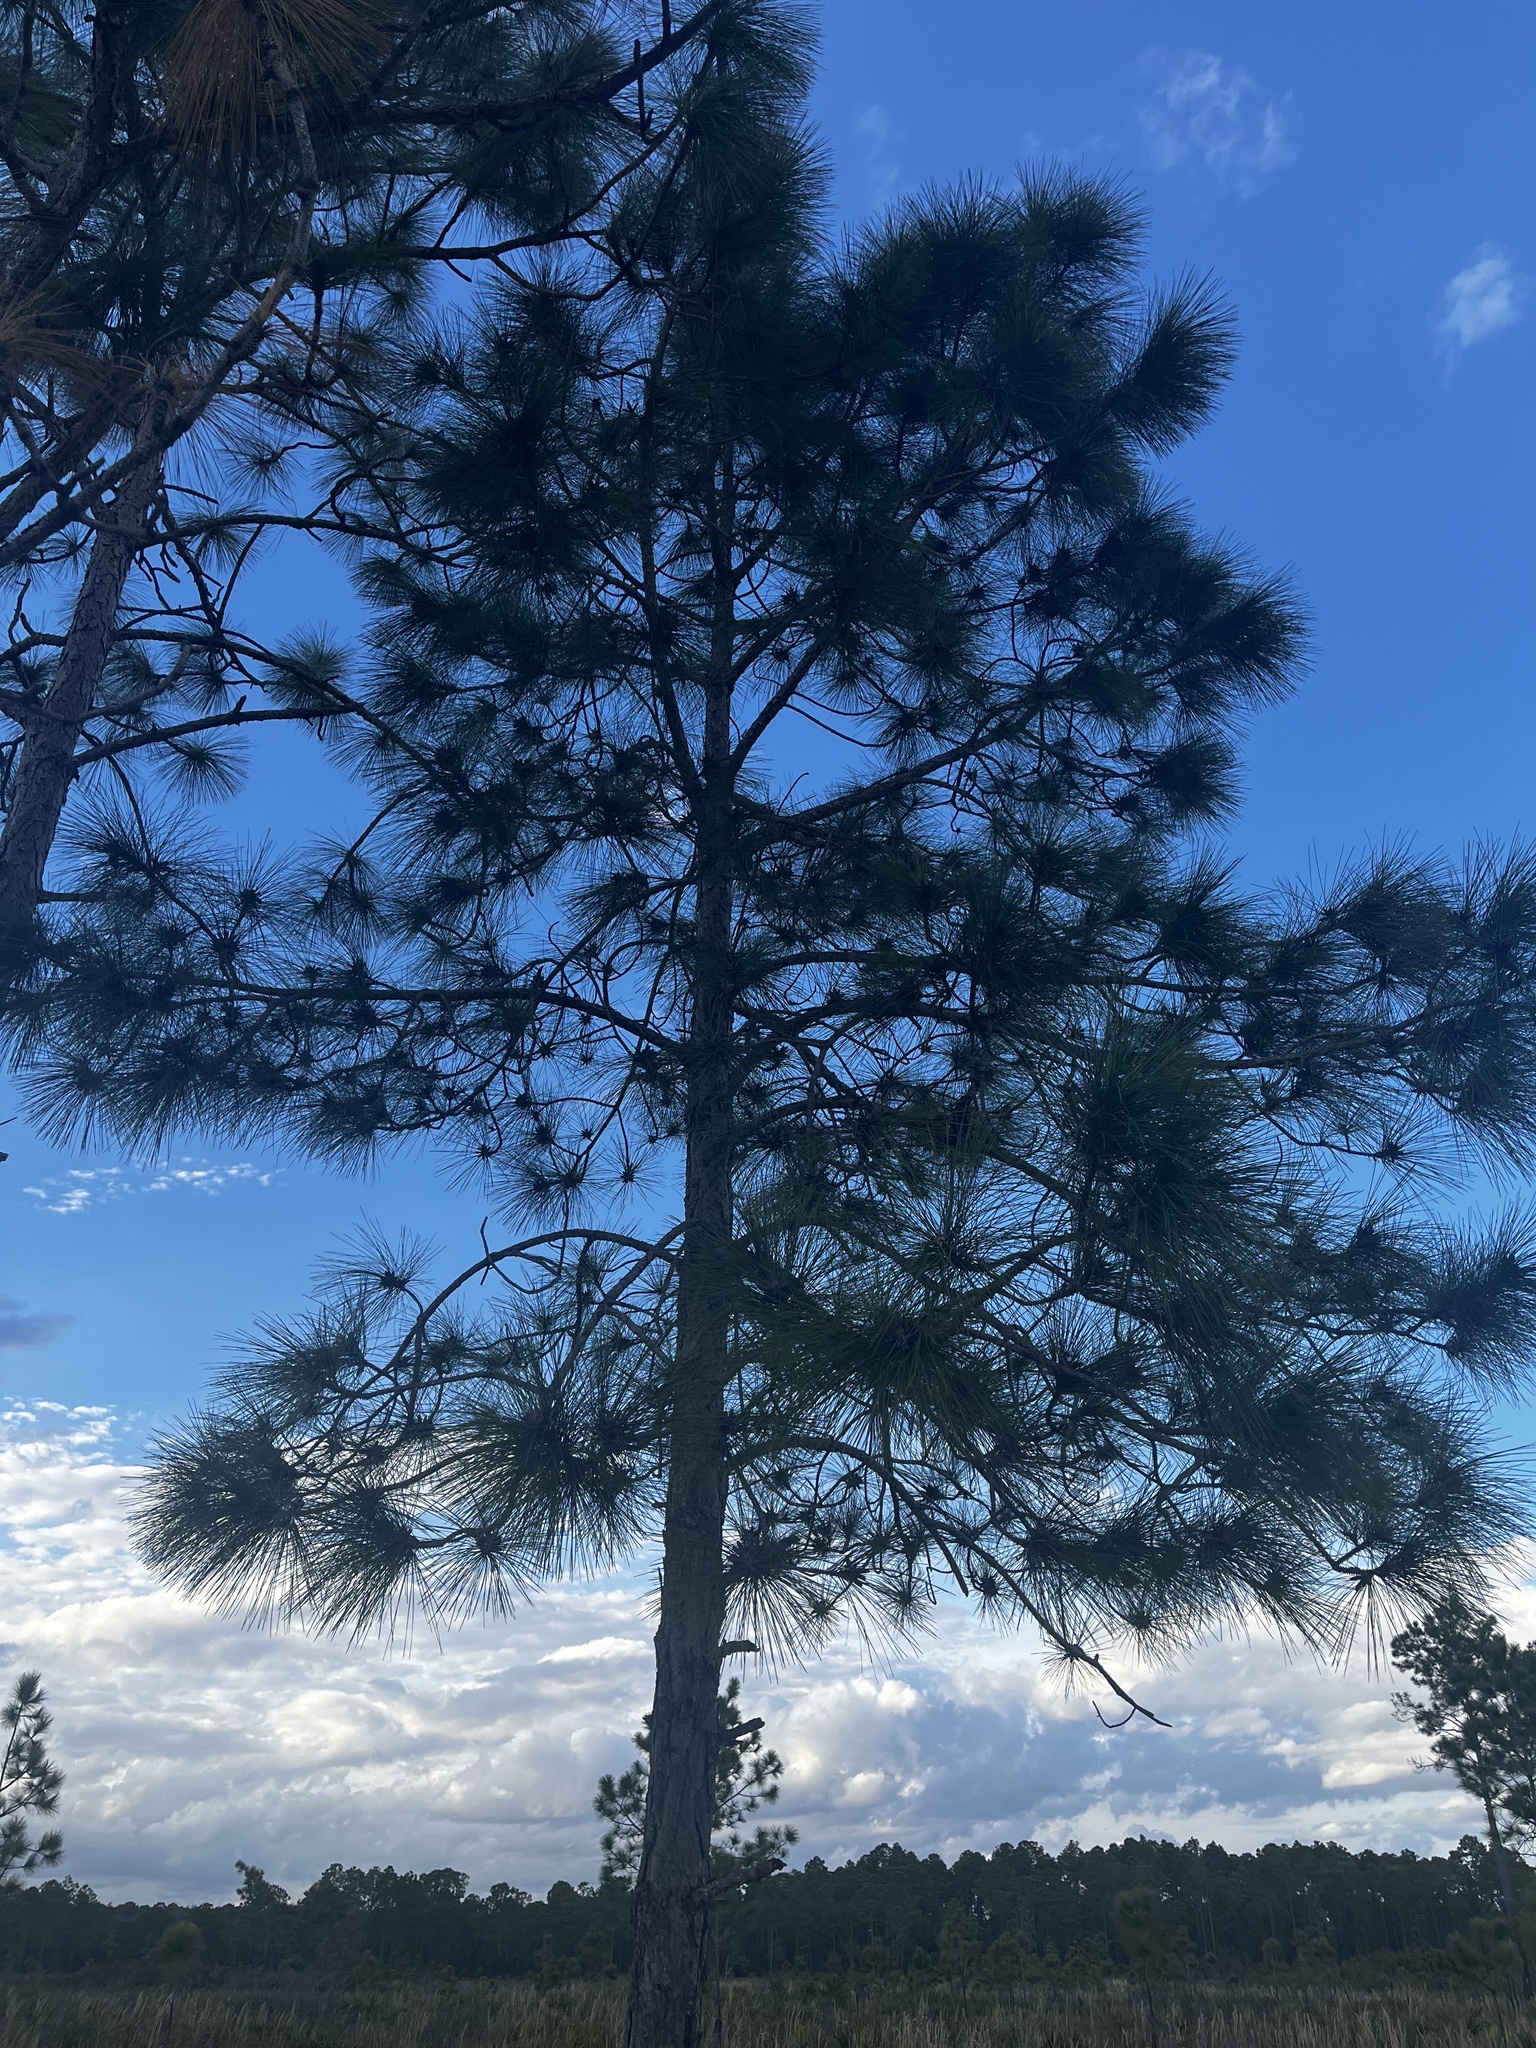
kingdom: Plantae
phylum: Tracheophyta
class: Pinopsida
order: Pinales
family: Pinaceae
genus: Pinus
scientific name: Pinus elliottii
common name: Slash pine
